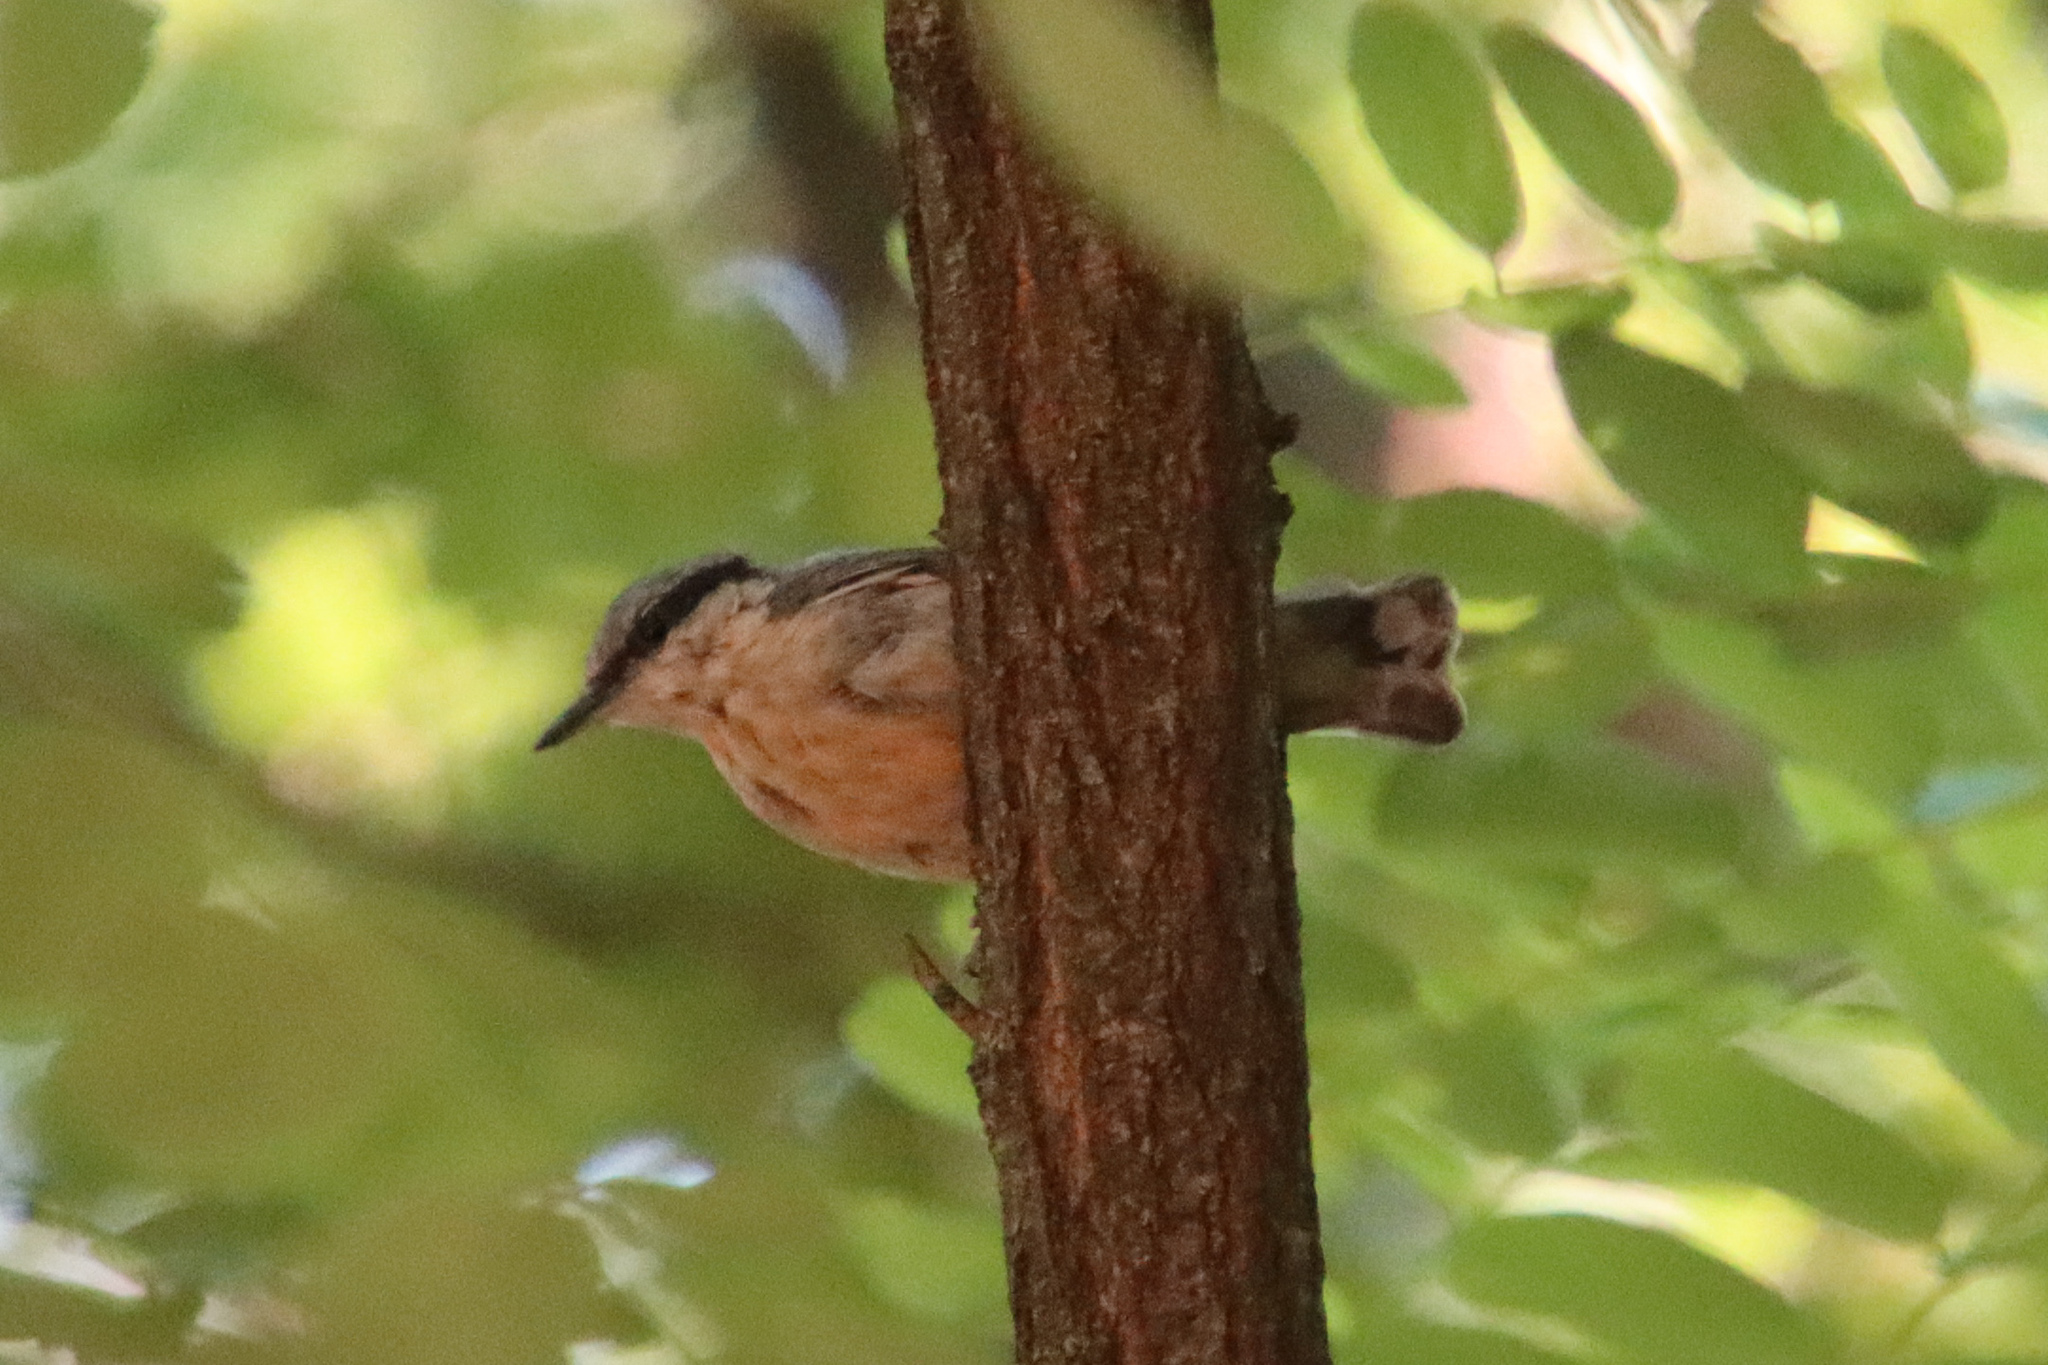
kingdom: Animalia
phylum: Chordata
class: Aves
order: Passeriformes
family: Sittidae
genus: Sitta
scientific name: Sitta europaea
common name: Eurasian nuthatch
